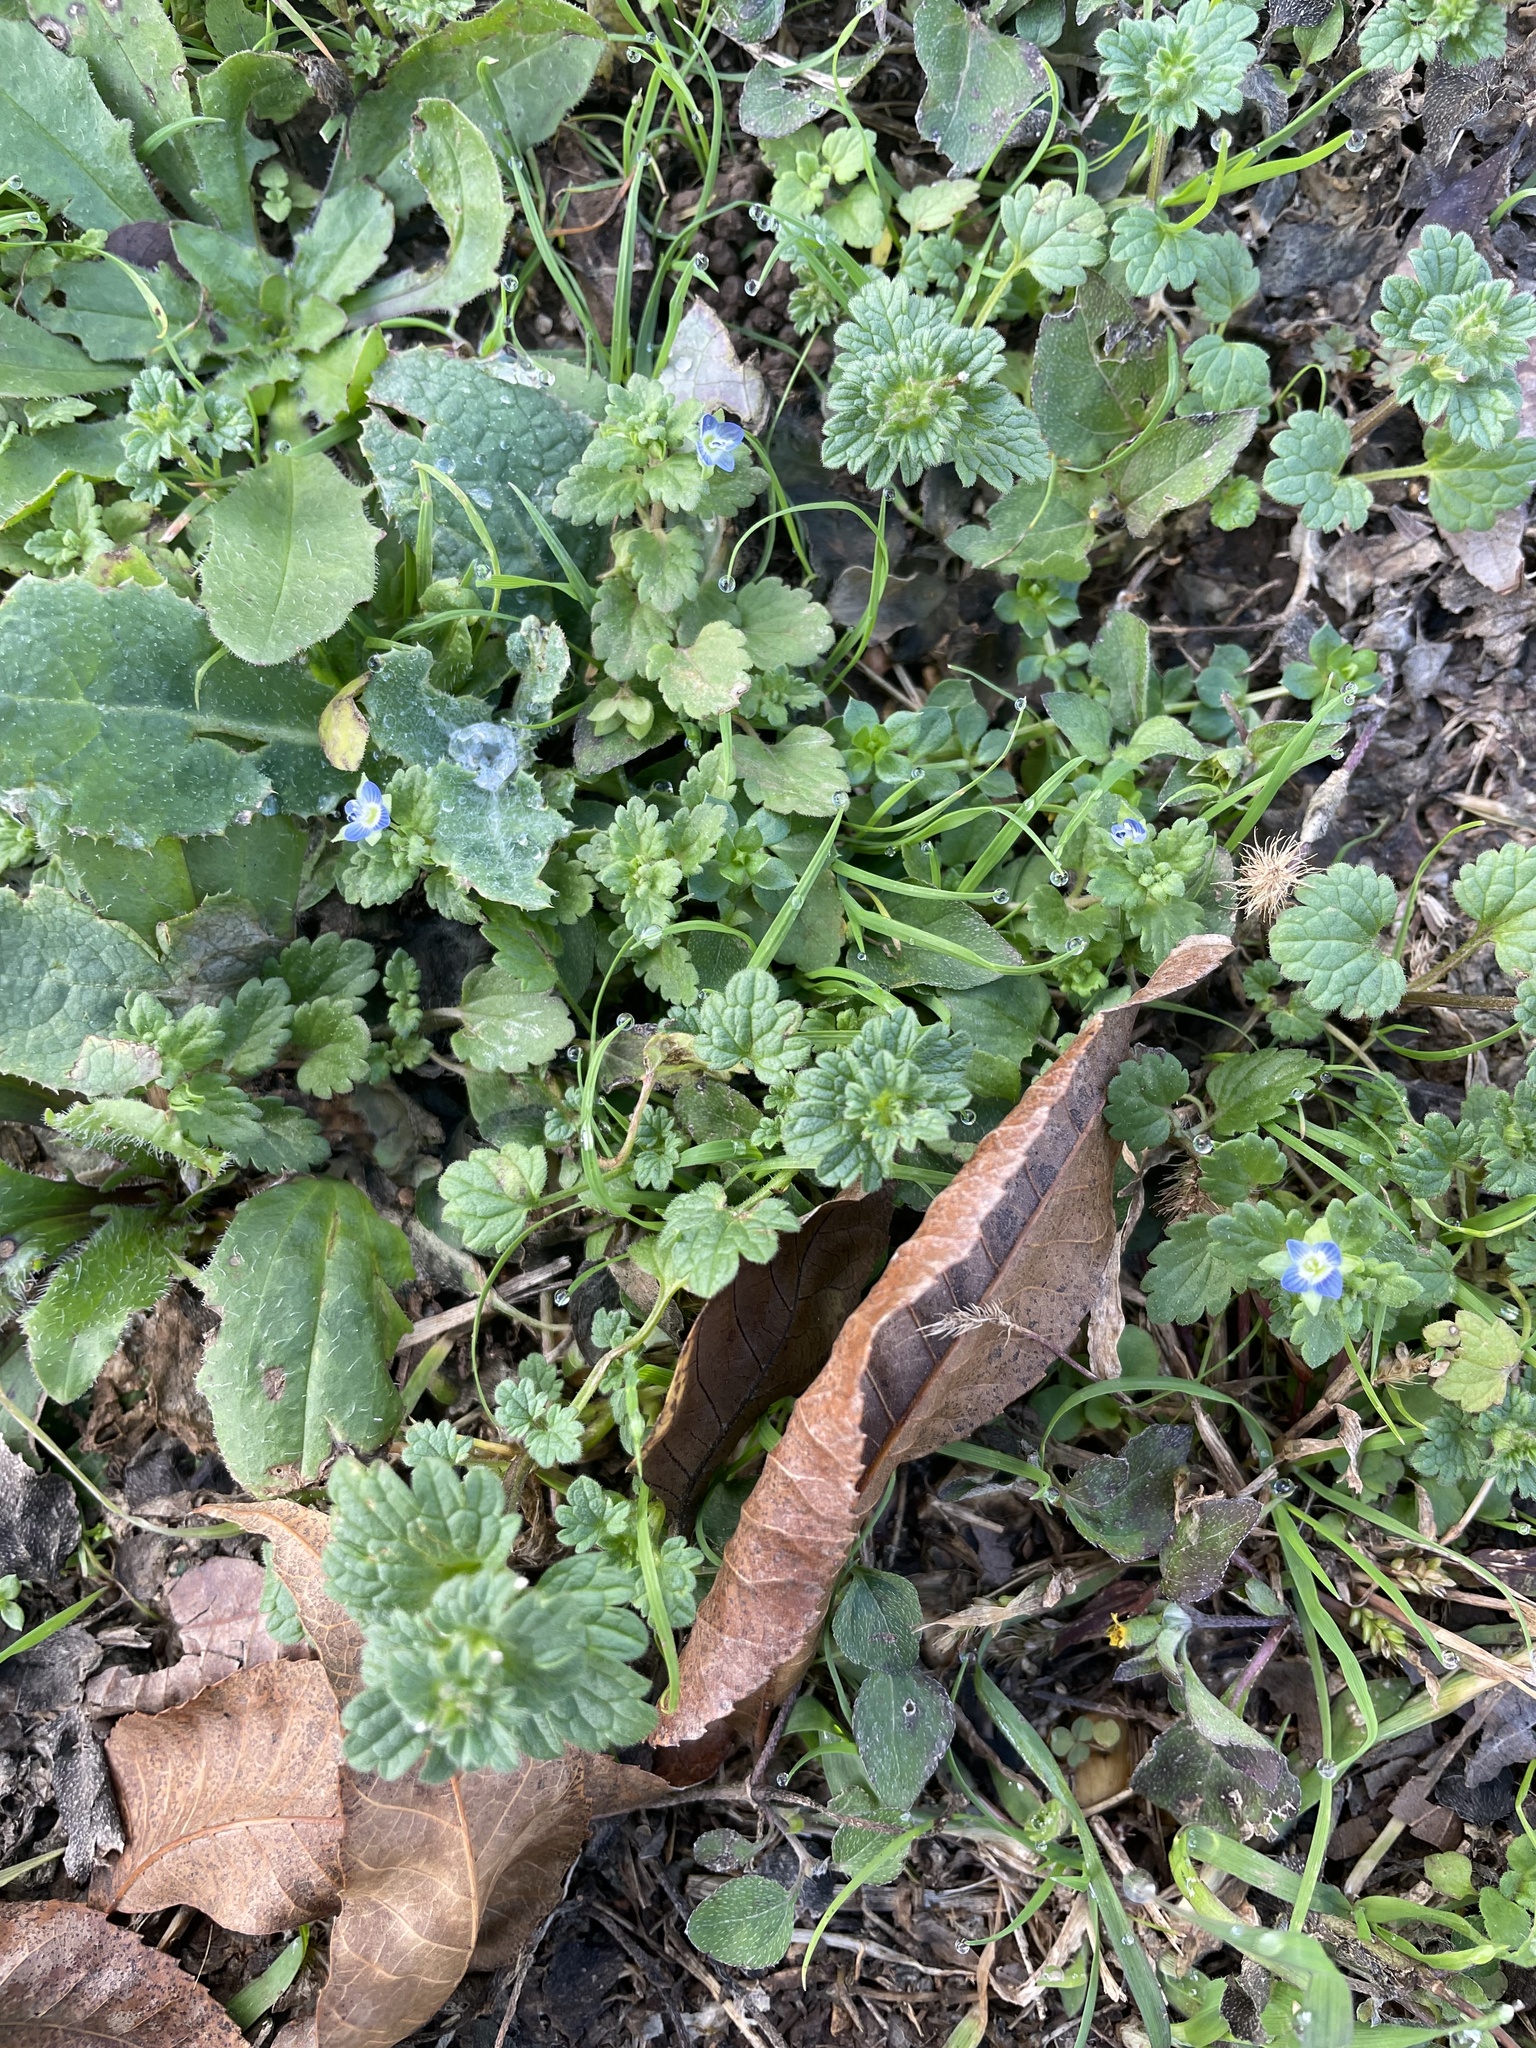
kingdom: Plantae
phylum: Tracheophyta
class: Magnoliopsida
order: Lamiales
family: Plantaginaceae
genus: Veronica
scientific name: Veronica polita
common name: Grey field-speedwell
